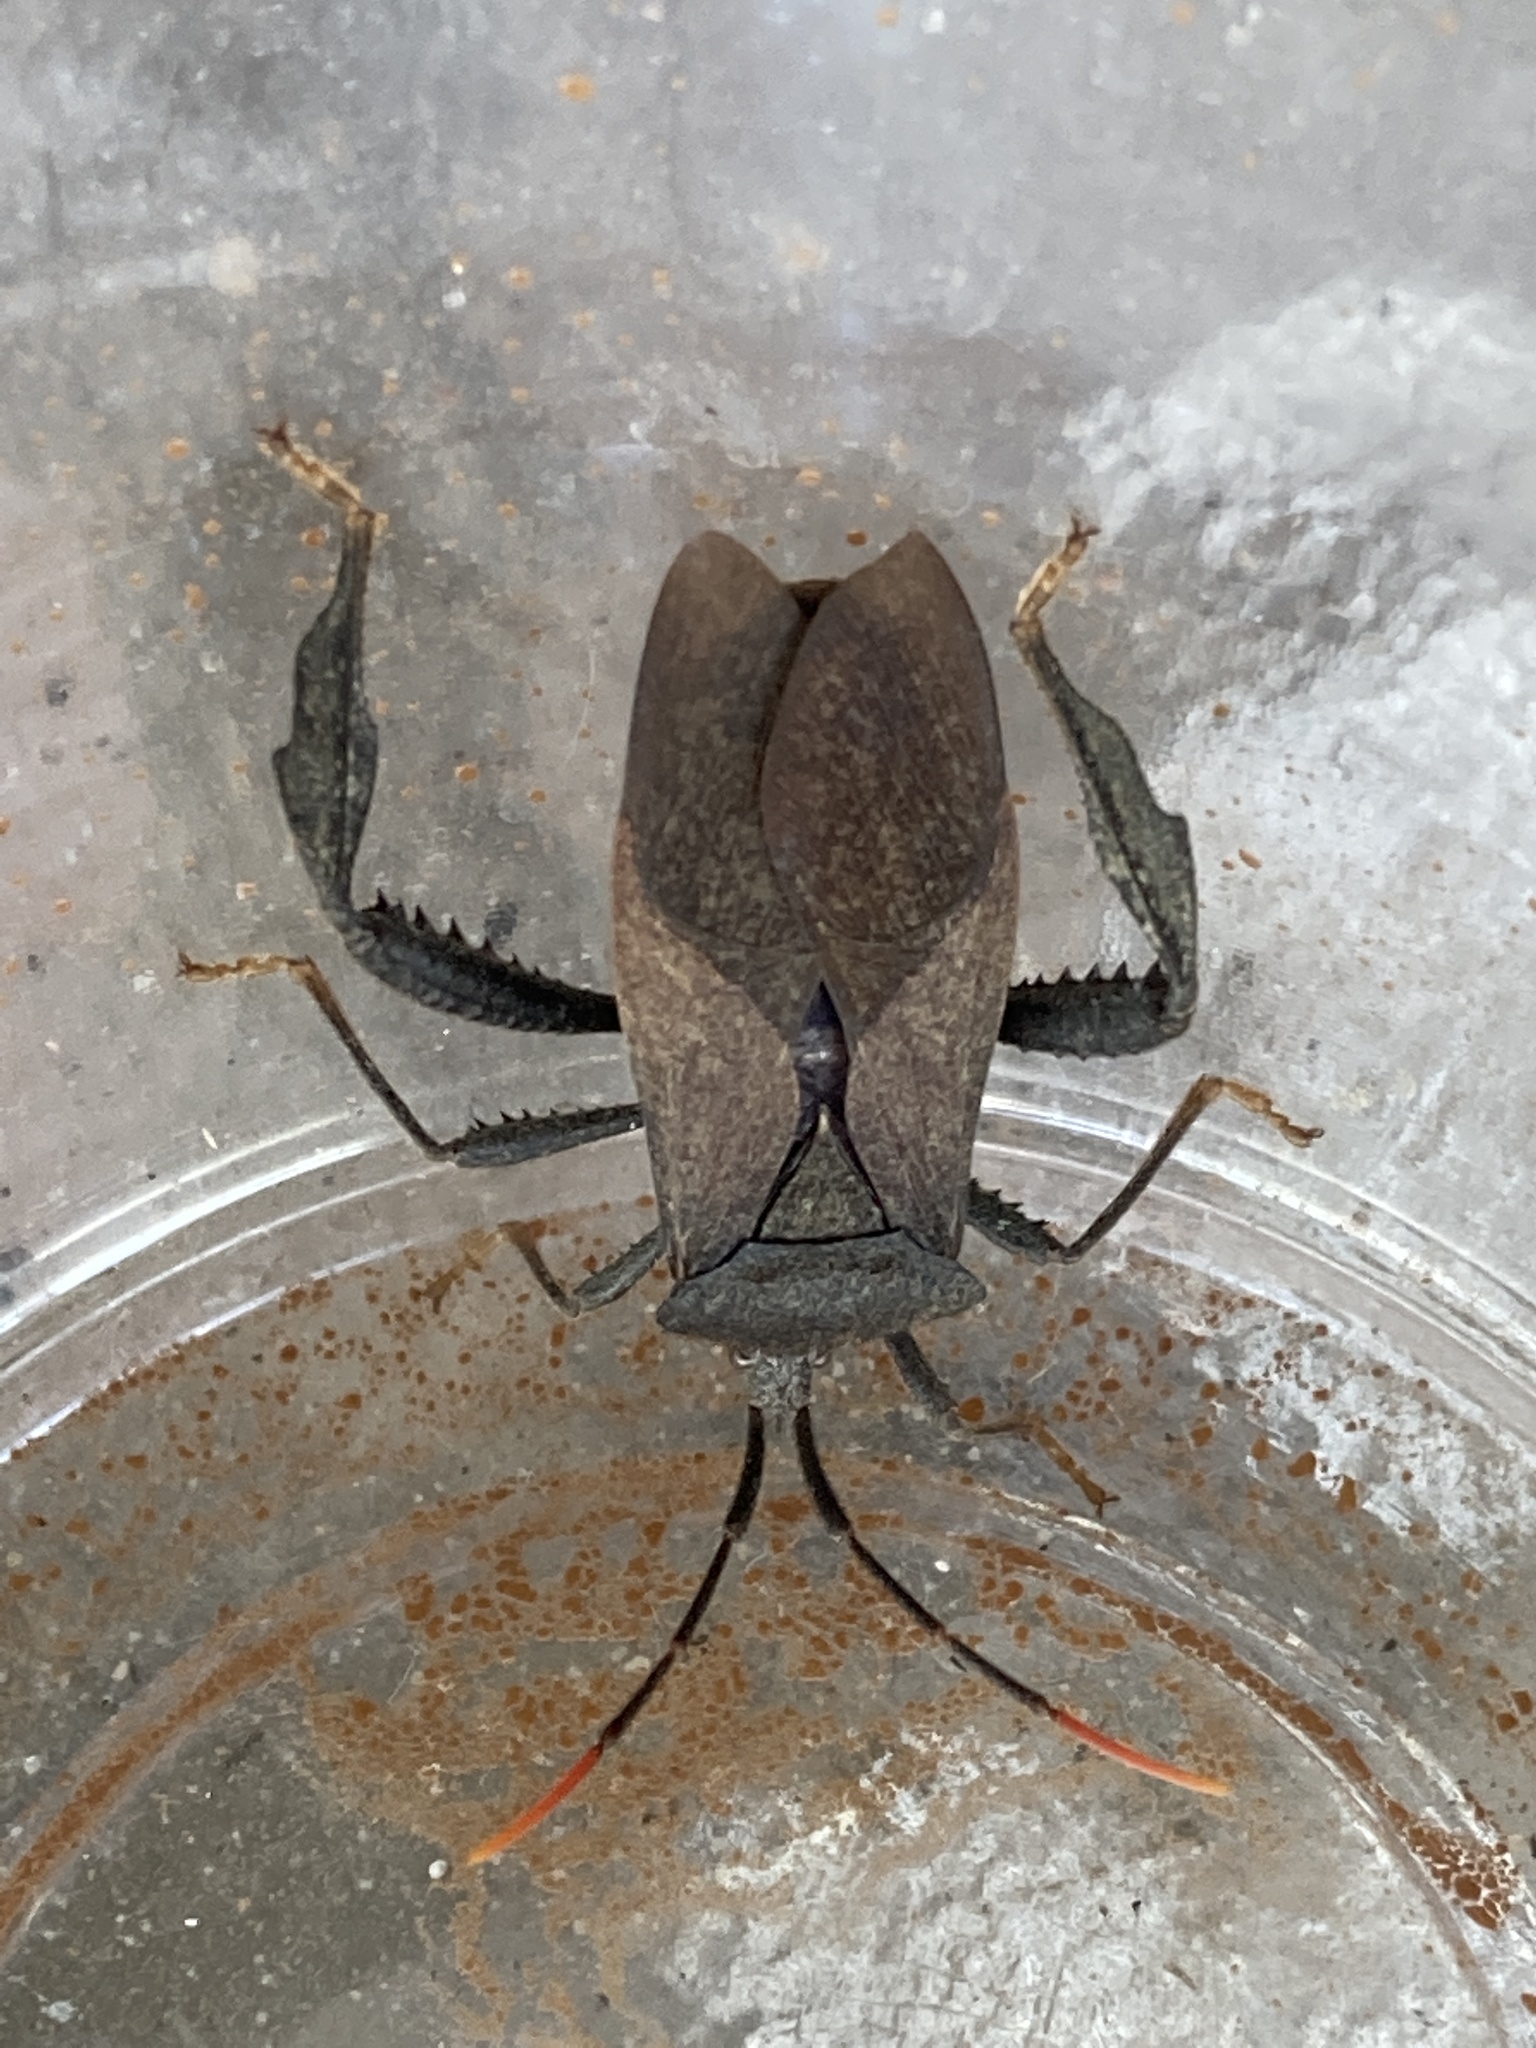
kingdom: Animalia
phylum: Arthropoda
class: Insecta
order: Hemiptera
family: Coreidae
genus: Acanthocephala
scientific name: Acanthocephala terminalis
